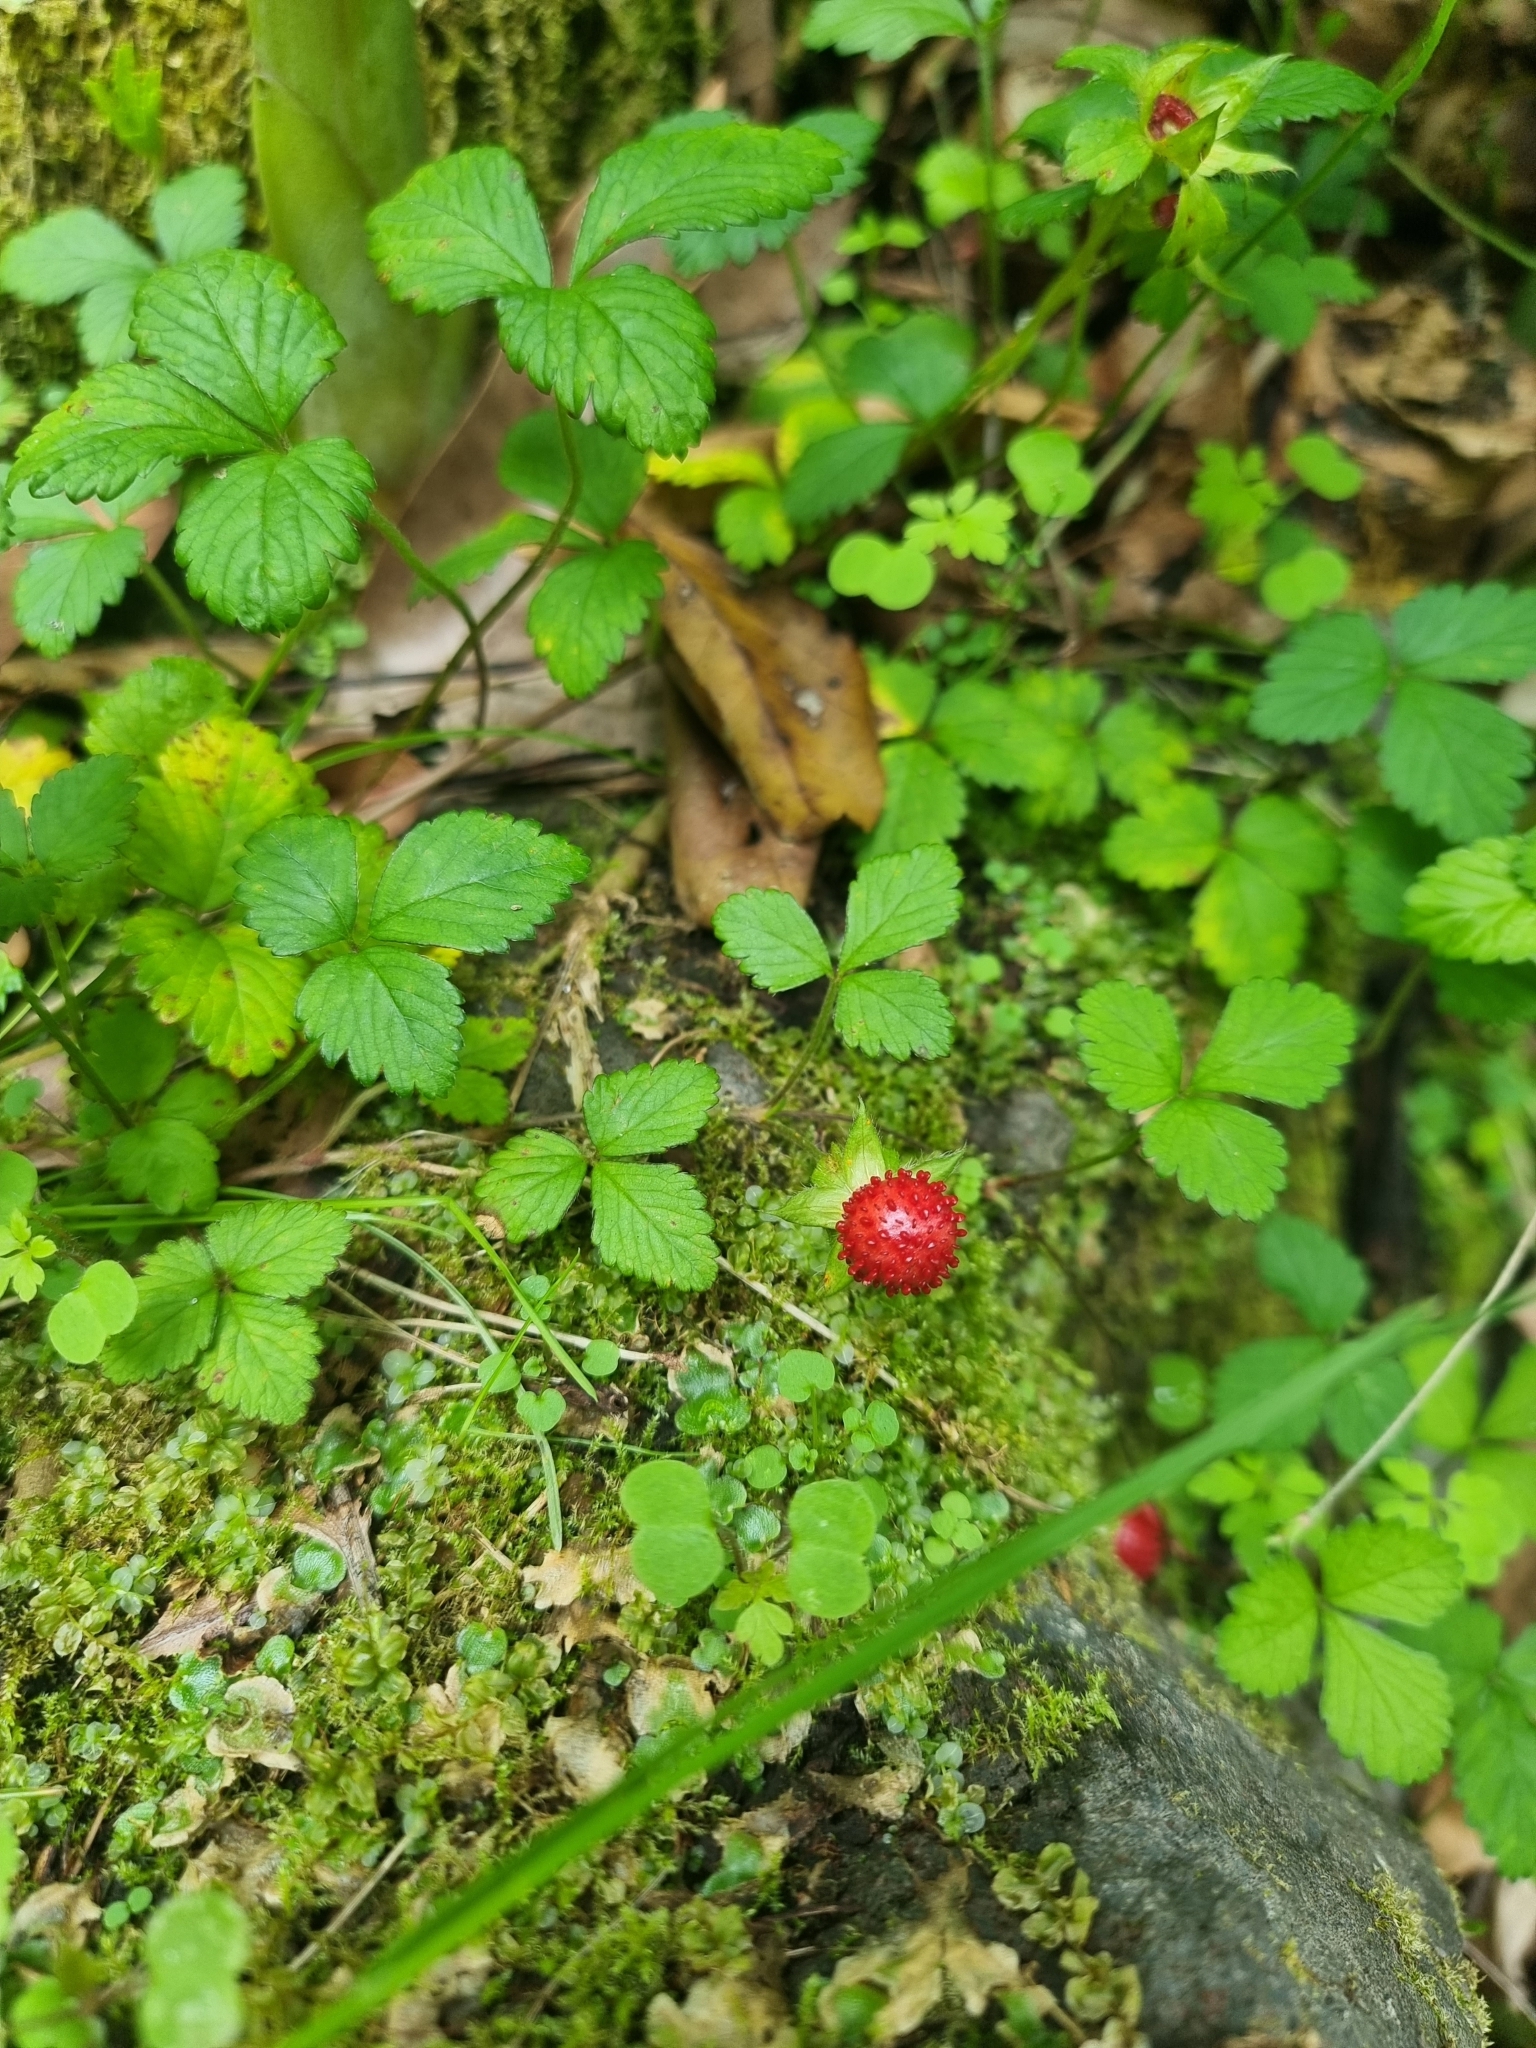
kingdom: Plantae
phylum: Tracheophyta
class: Magnoliopsida
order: Rosales
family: Rosaceae
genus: Potentilla
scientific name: Potentilla indica
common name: Yellow-flowered strawberry
